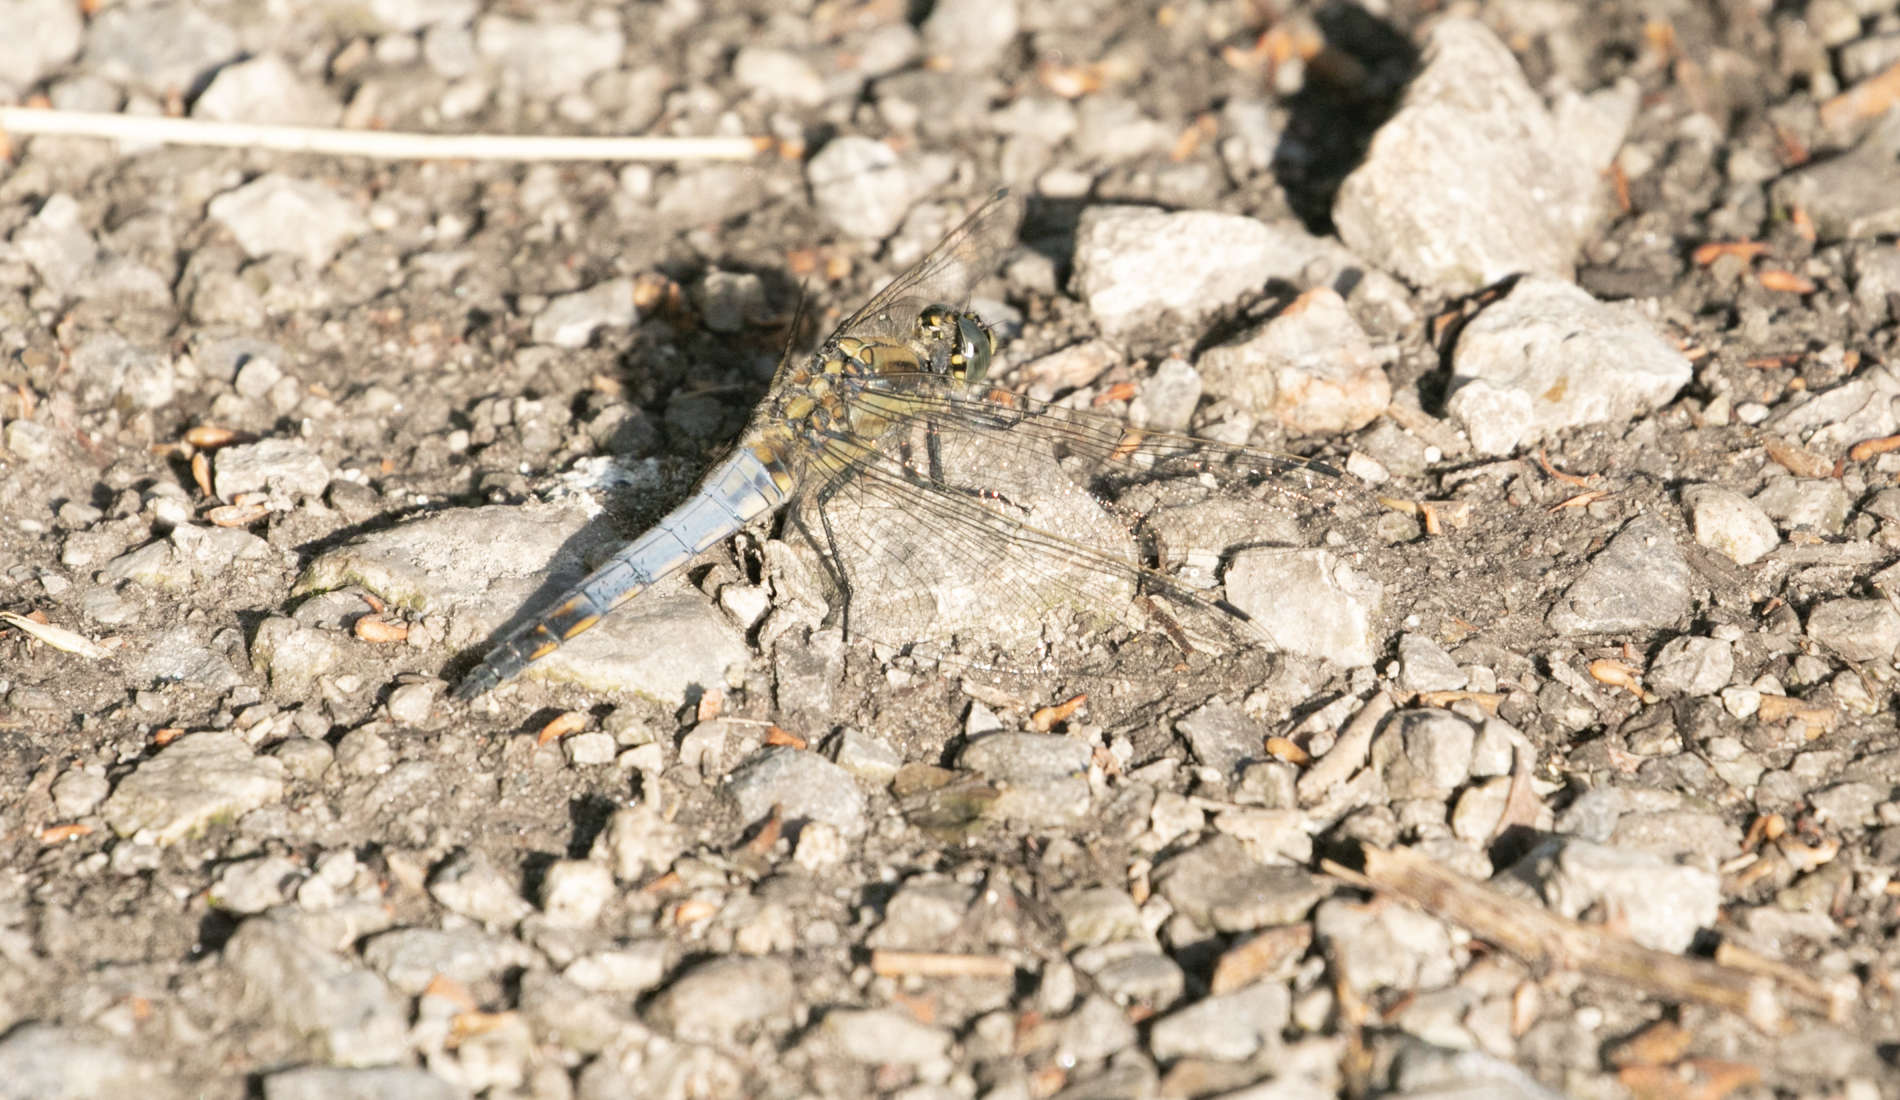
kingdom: Animalia
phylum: Arthropoda
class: Insecta
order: Odonata
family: Libellulidae
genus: Orthetrum
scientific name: Orthetrum cancellatum
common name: Black-tailed skimmer
